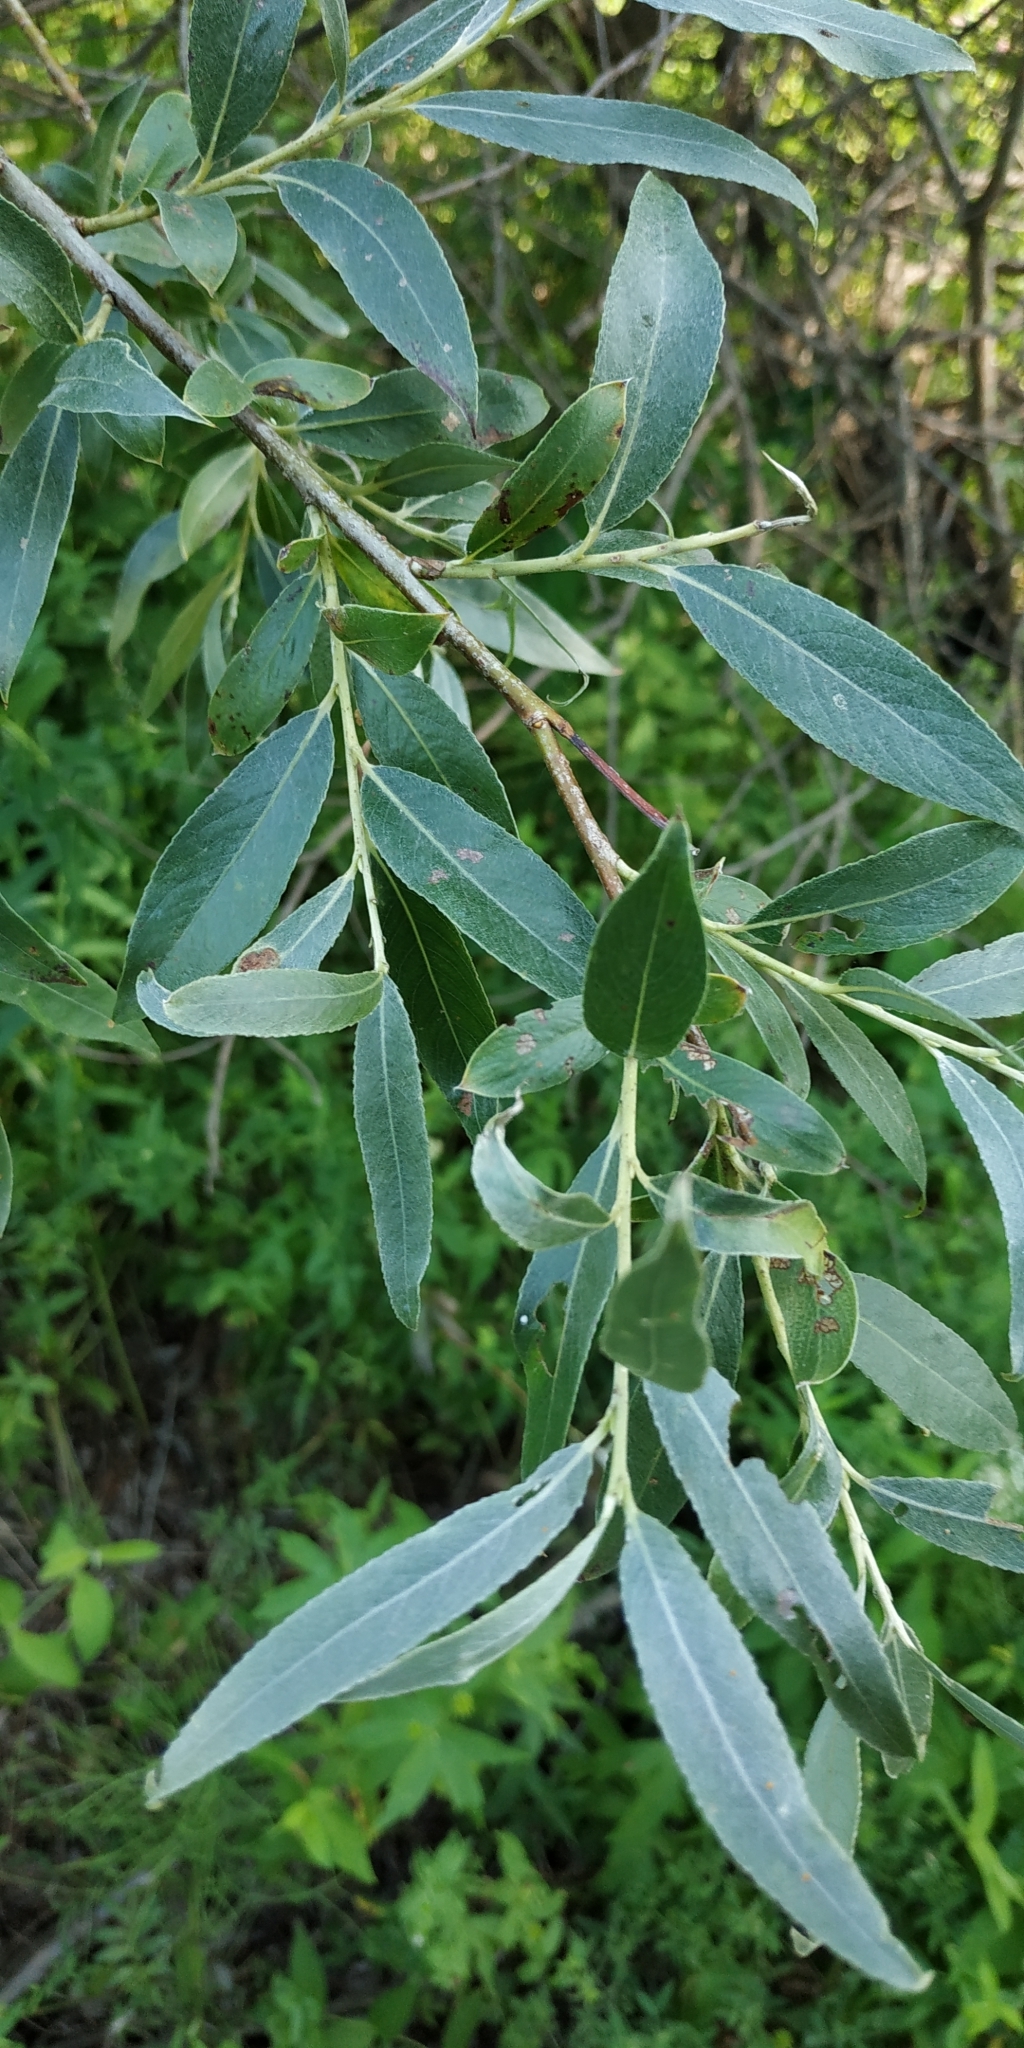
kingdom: Plantae
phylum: Tracheophyta
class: Magnoliopsida
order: Malpighiales
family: Salicaceae
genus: Salix
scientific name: Salix alba
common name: White willow
